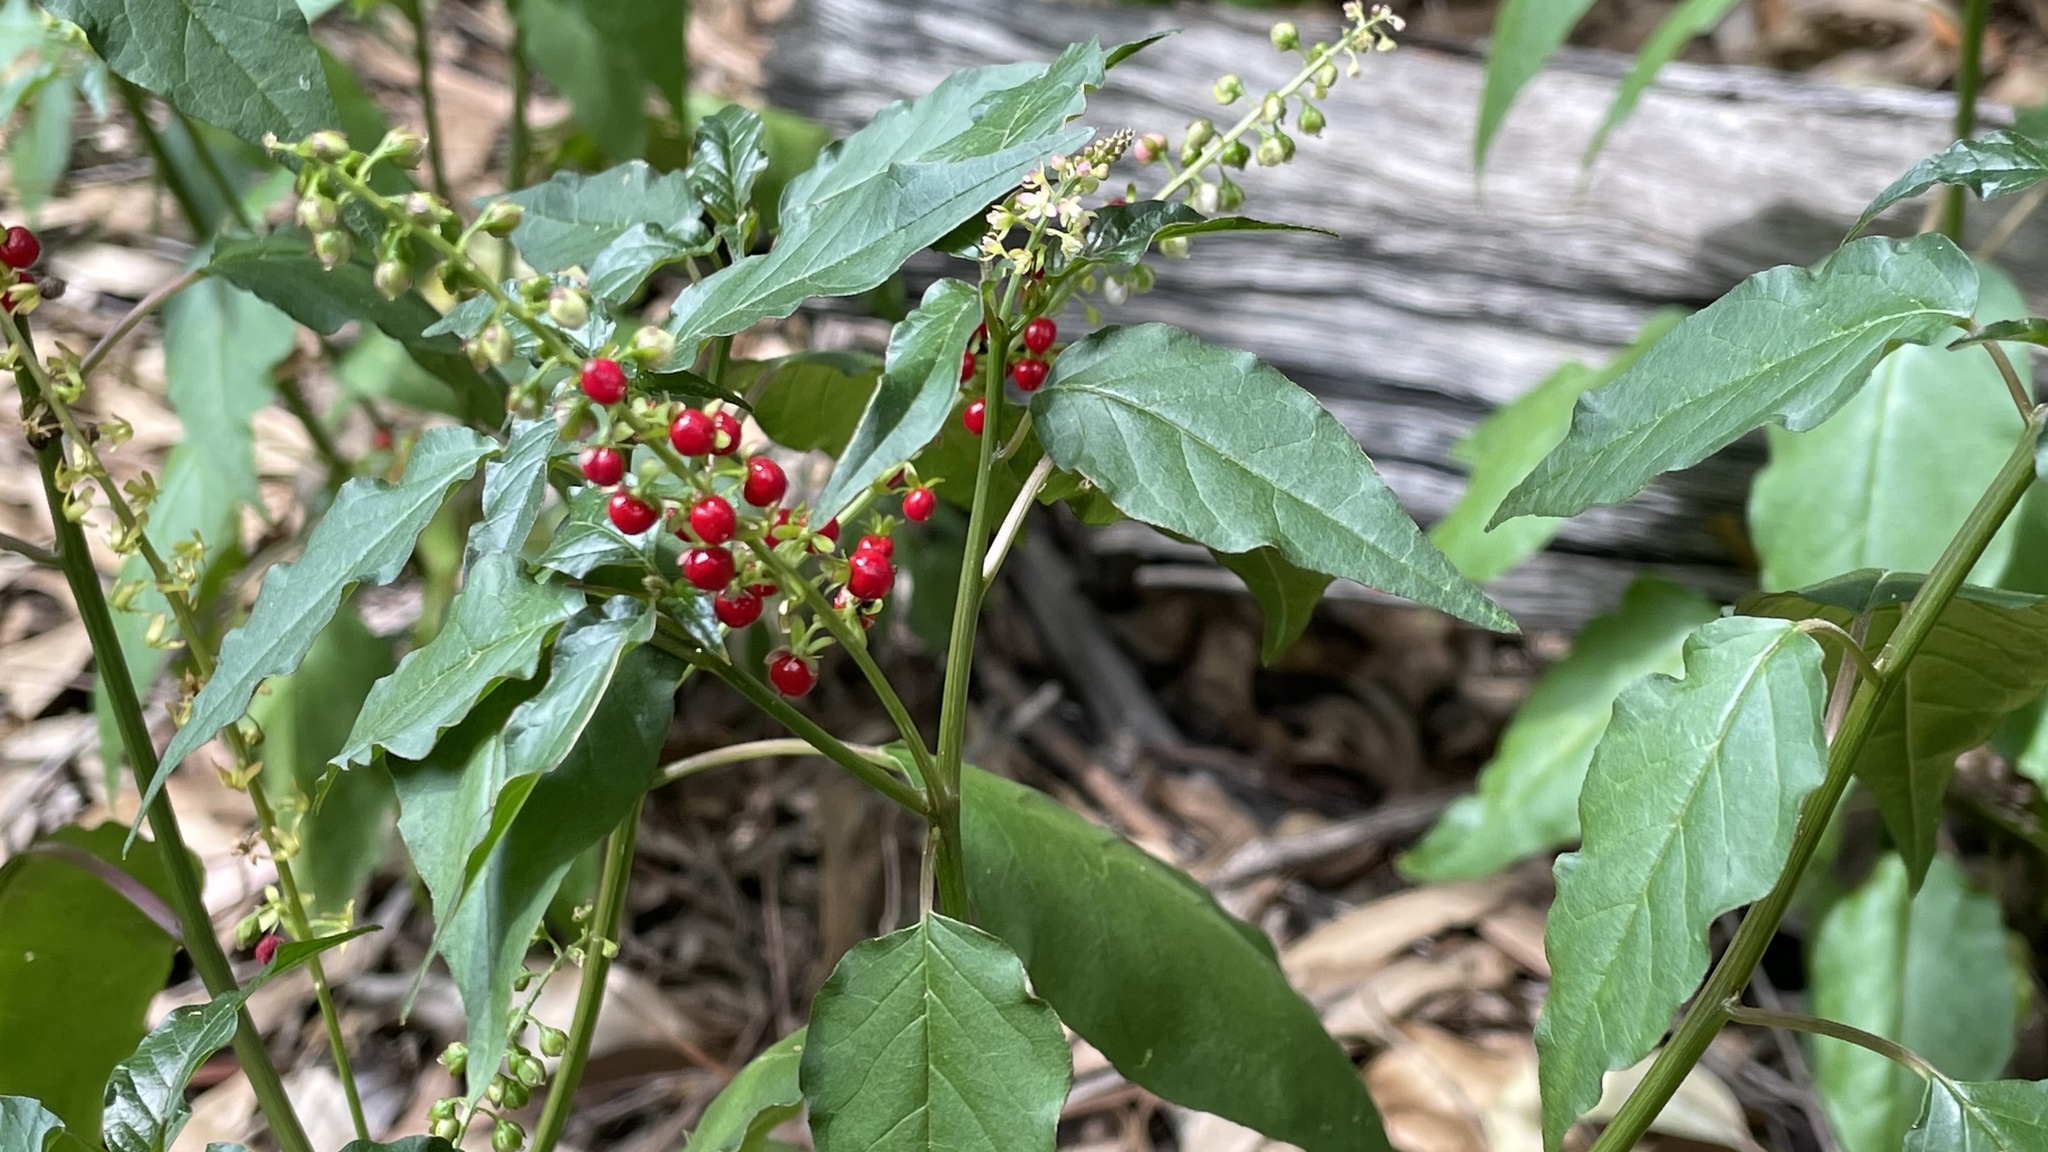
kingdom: Plantae
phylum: Tracheophyta
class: Magnoliopsida
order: Caryophyllales
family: Phytolaccaceae
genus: Rivina
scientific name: Rivina humilis
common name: Rougeplant
